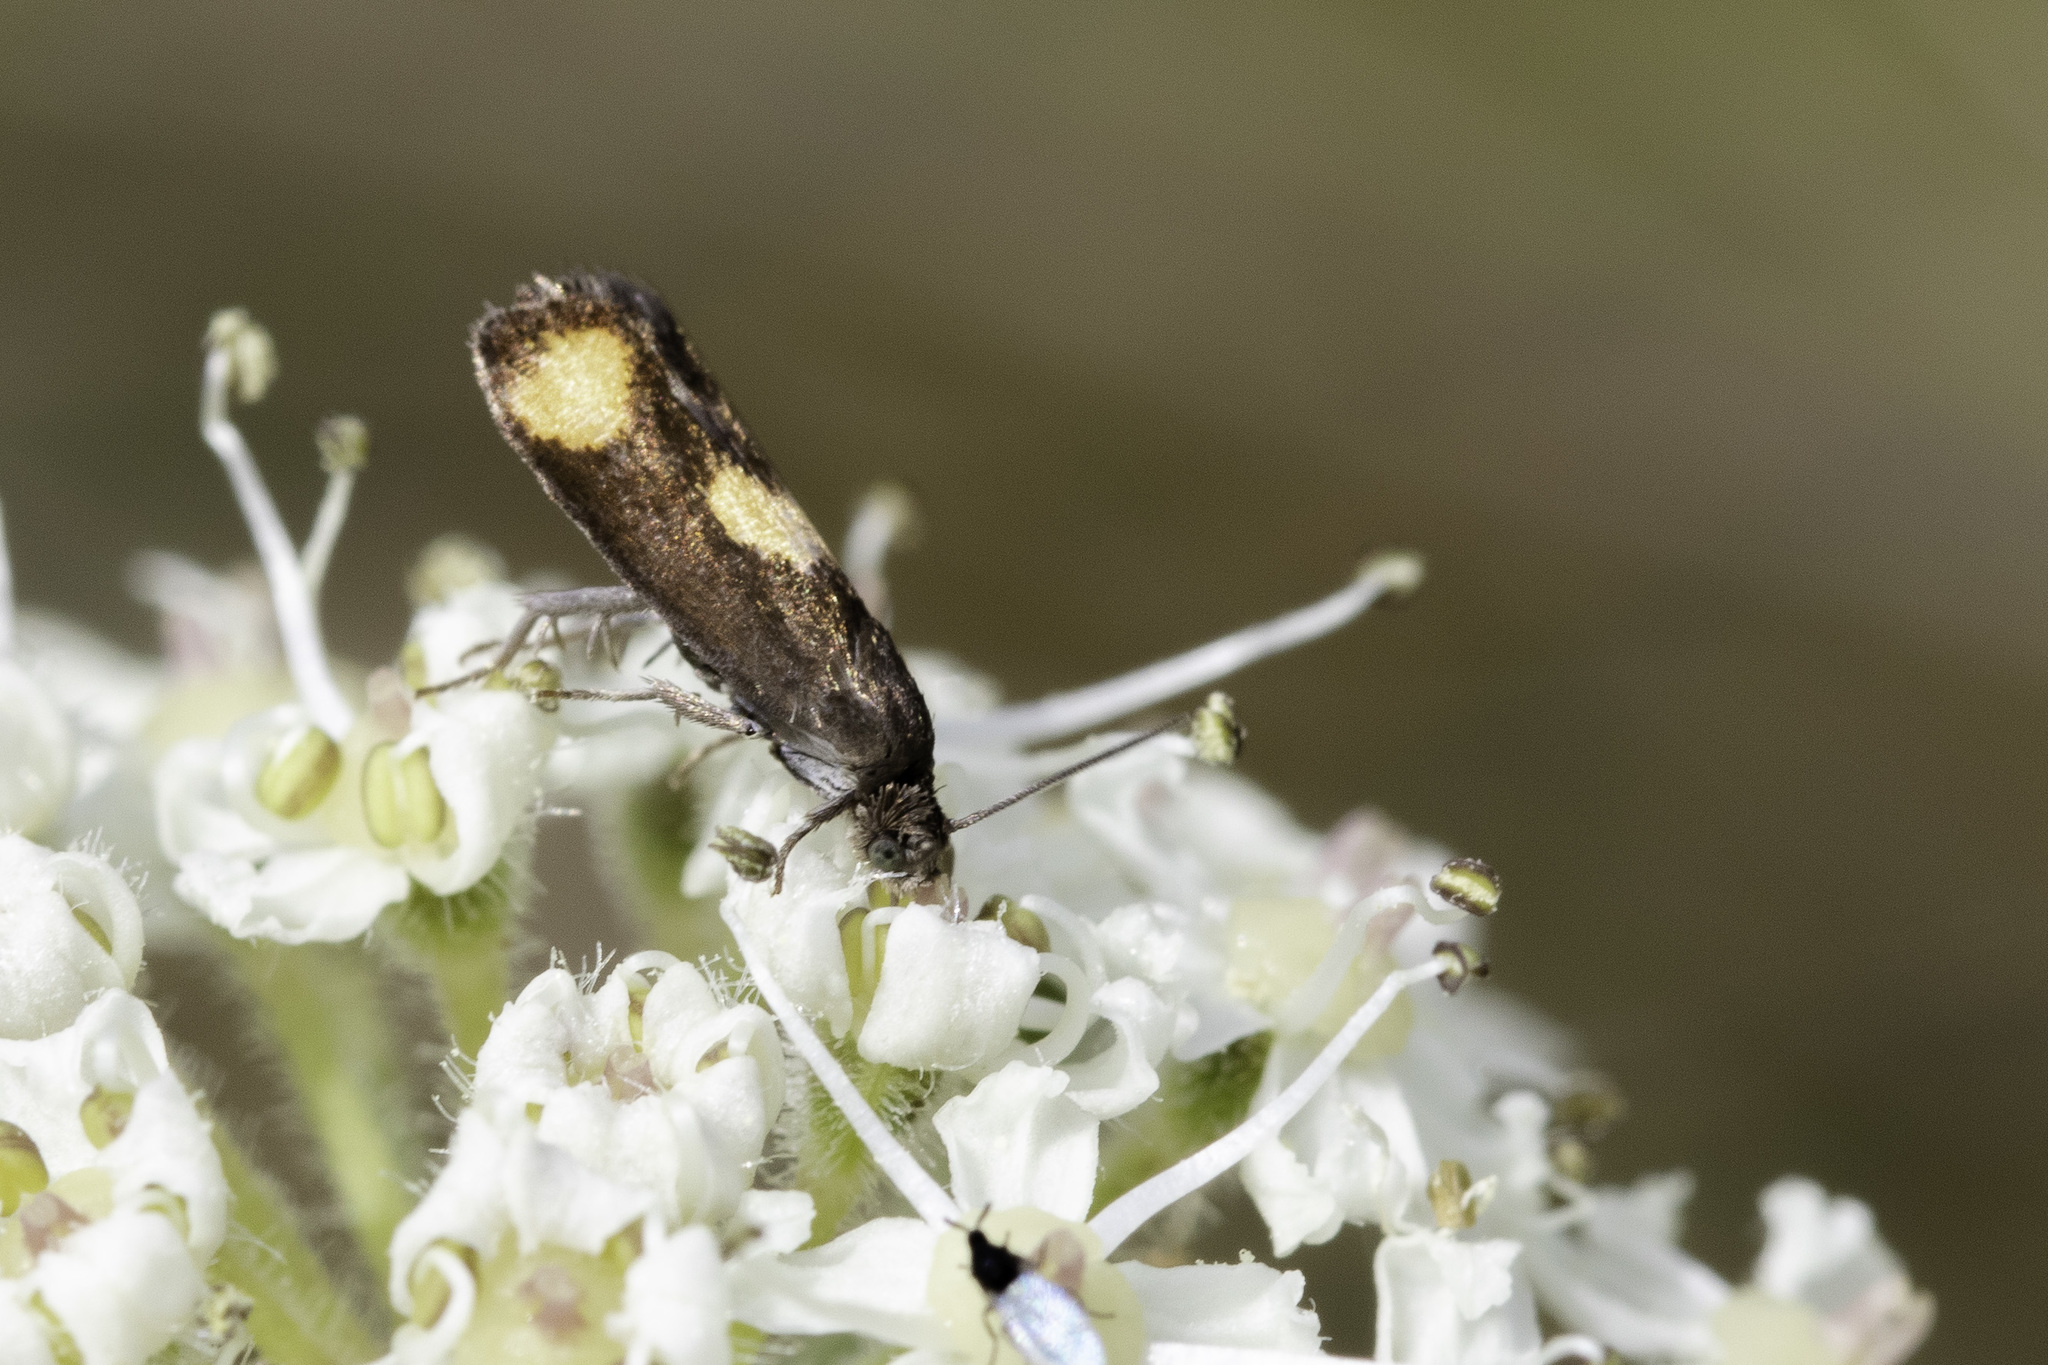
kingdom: Animalia
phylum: Arthropoda
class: Insecta
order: Lepidoptera
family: Tortricidae
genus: Pammene
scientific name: Pammene aurana
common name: Orange-spot piercer
